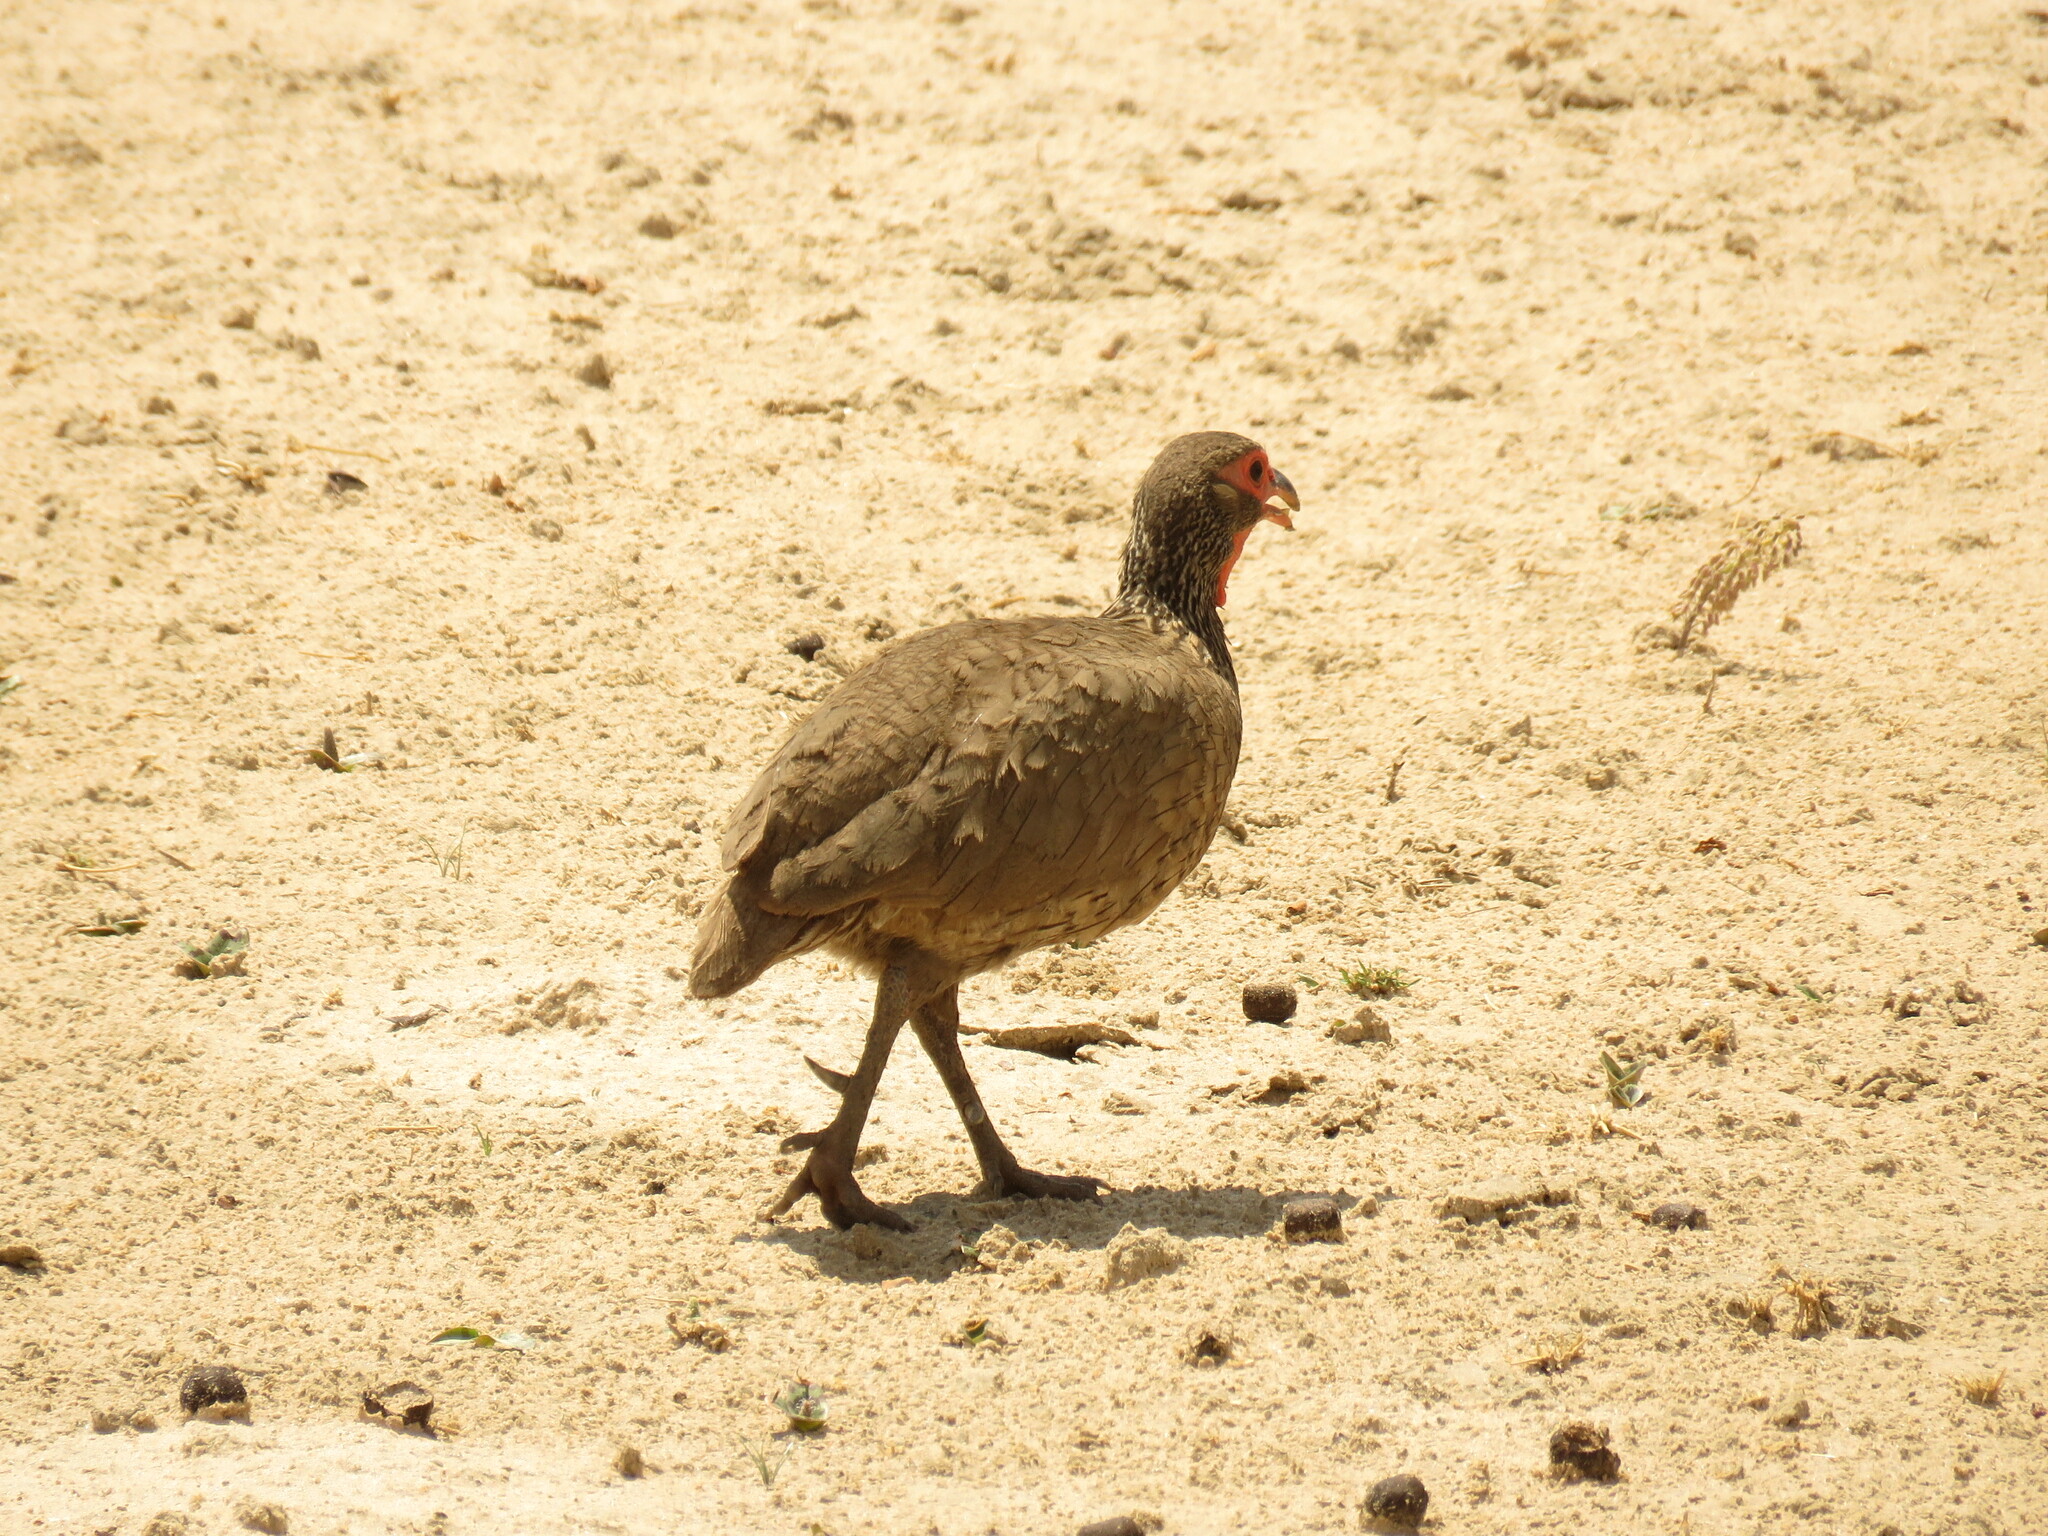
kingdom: Animalia
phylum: Chordata
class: Aves
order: Galliformes
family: Phasianidae
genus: Pternistis
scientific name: Pternistis swainsonii
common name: Swainson's spurfowl
